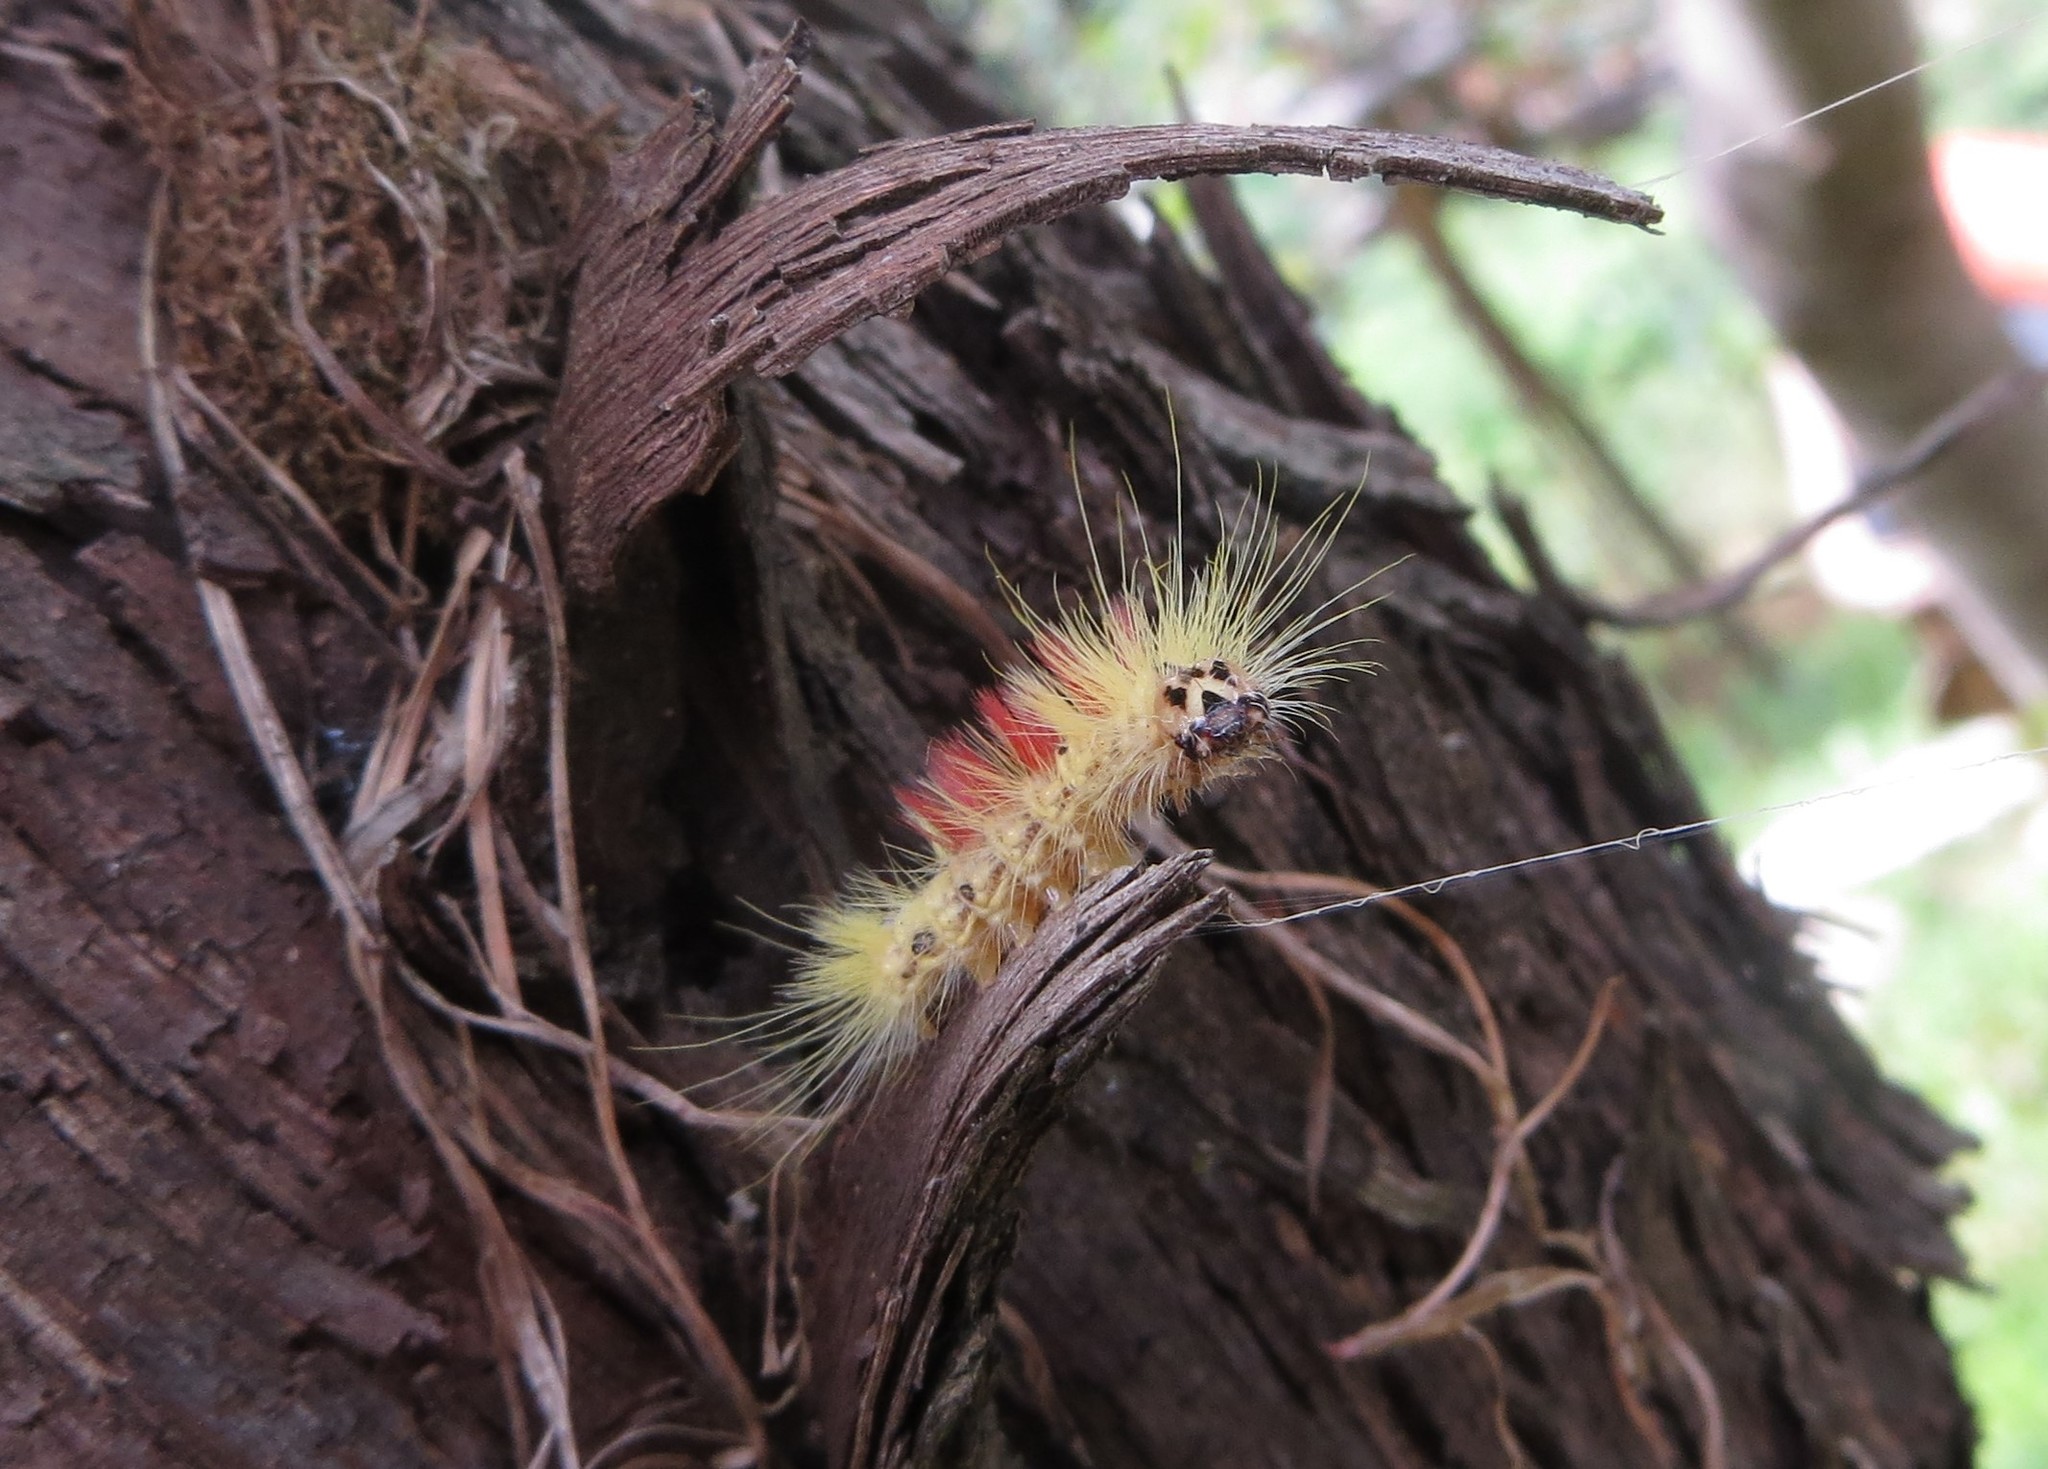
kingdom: Animalia
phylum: Arthropoda
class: Insecta
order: Lepidoptera
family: Noctuidae
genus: Acronicta
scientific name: Acronicta aceris
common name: Sycamore
